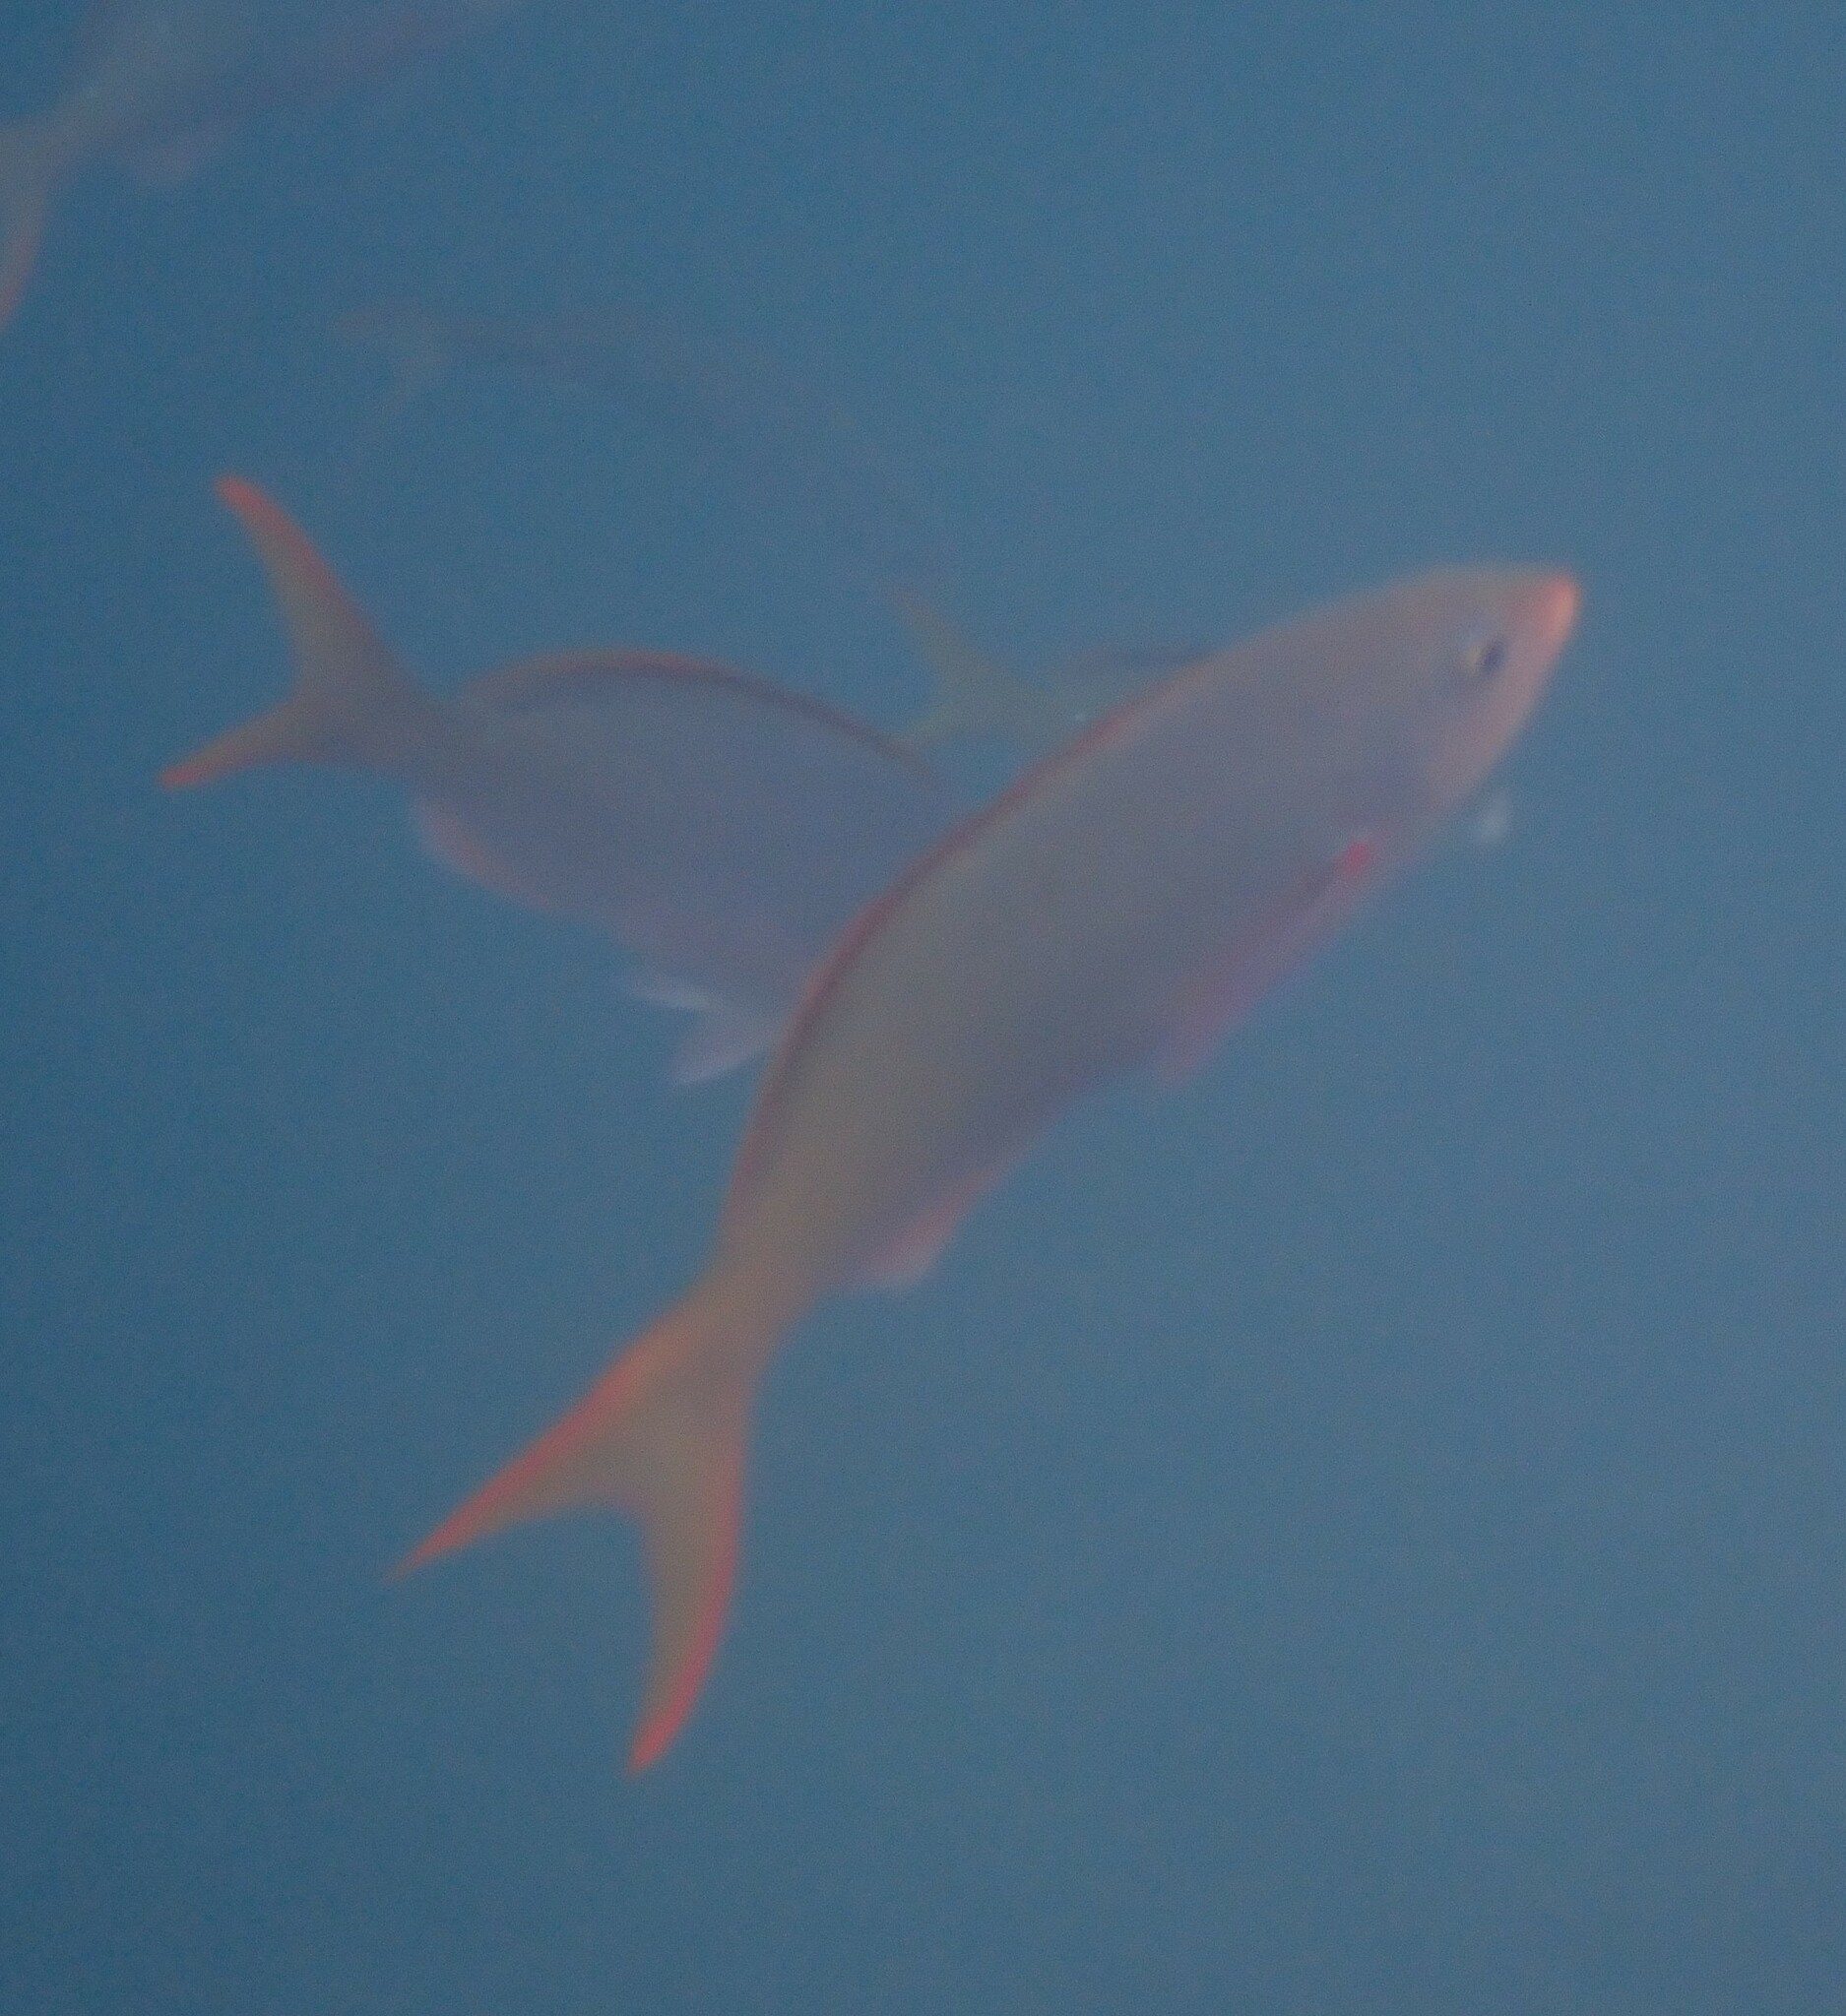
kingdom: Animalia
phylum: Chordata
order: Perciformes
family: Serranidae
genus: Paranthias
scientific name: Paranthias colonus
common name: Pacific creole-fish
